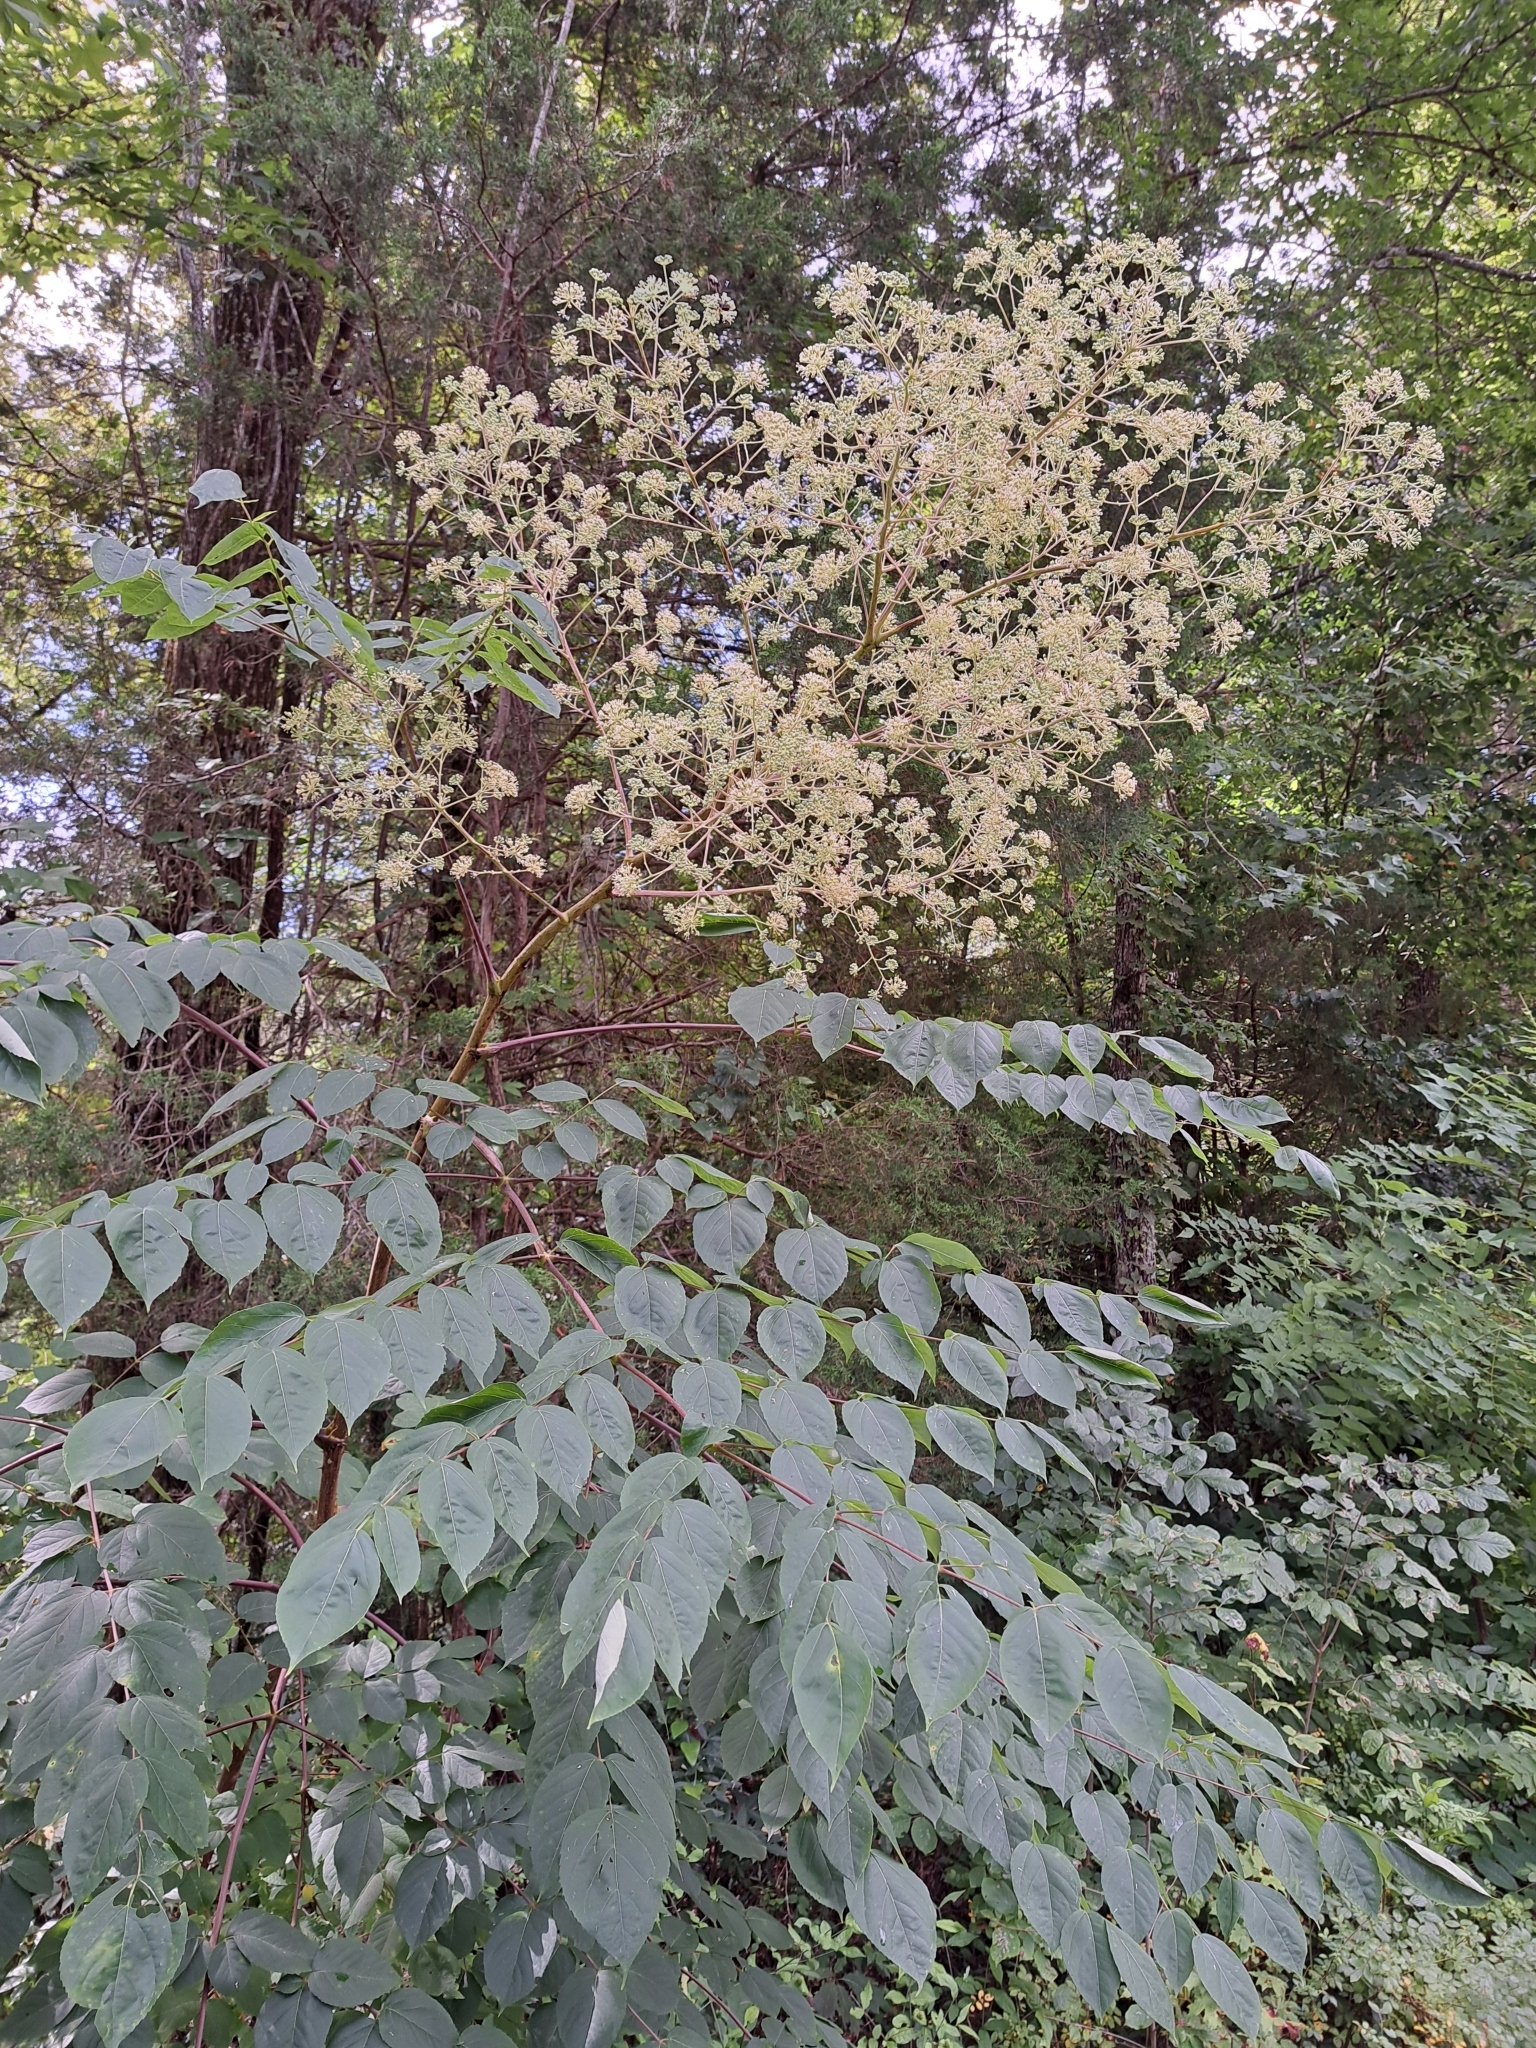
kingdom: Plantae
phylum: Tracheophyta
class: Magnoliopsida
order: Apiales
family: Araliaceae
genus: Aralia
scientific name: Aralia spinosa
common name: Hercules'-club
